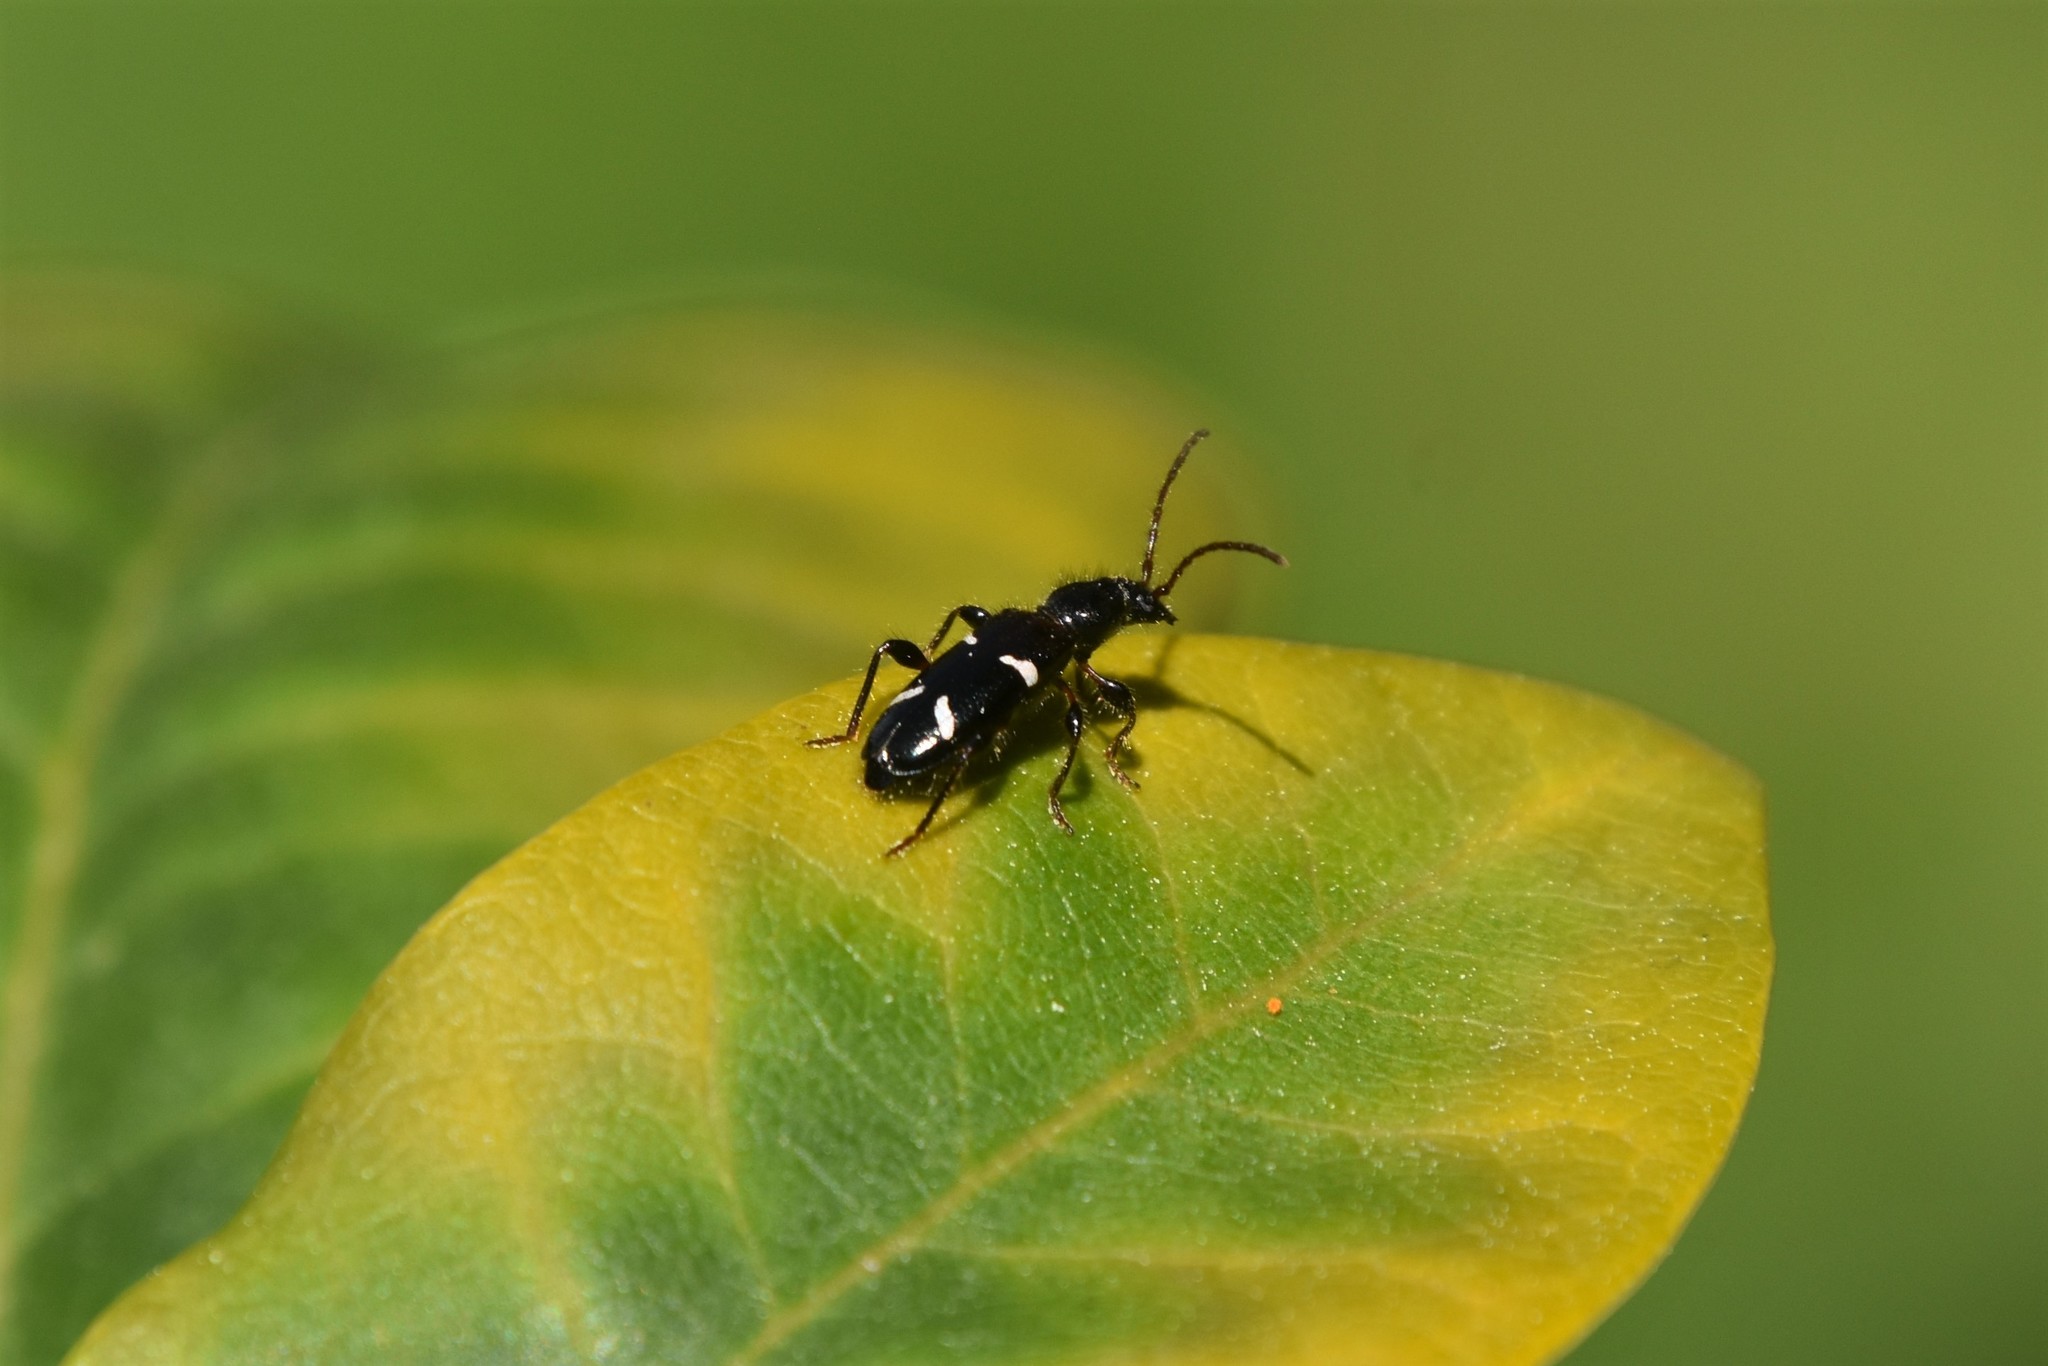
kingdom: Animalia
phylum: Arthropoda
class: Insecta
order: Coleoptera
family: Cerambycidae
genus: Phymatodes
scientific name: Phymatodes nitidus
